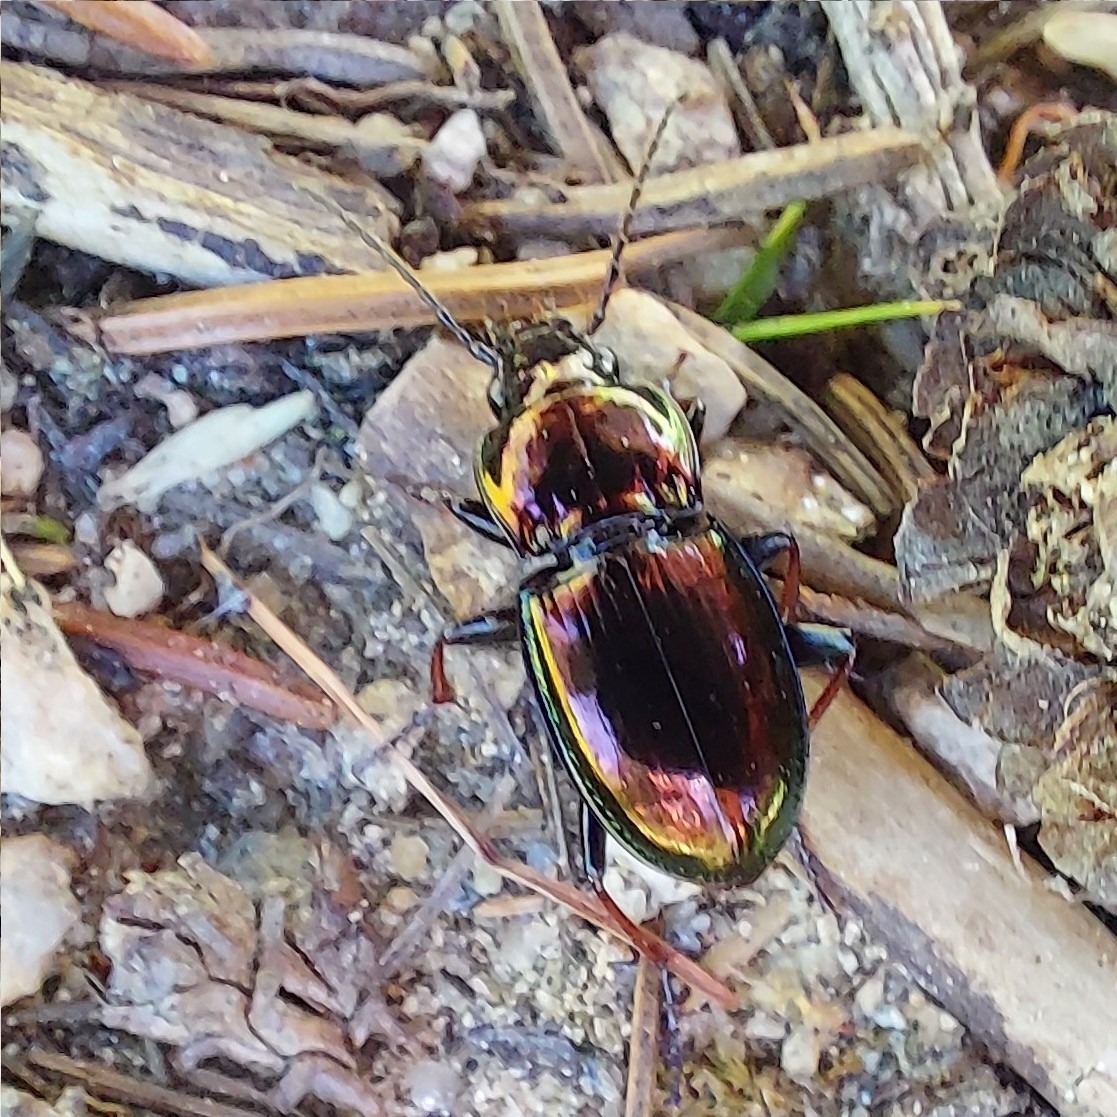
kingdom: Animalia
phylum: Arthropoda
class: Insecta
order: Coleoptera
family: Carabidae
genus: Pterostichus
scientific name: Pterostichus burmeisteri
